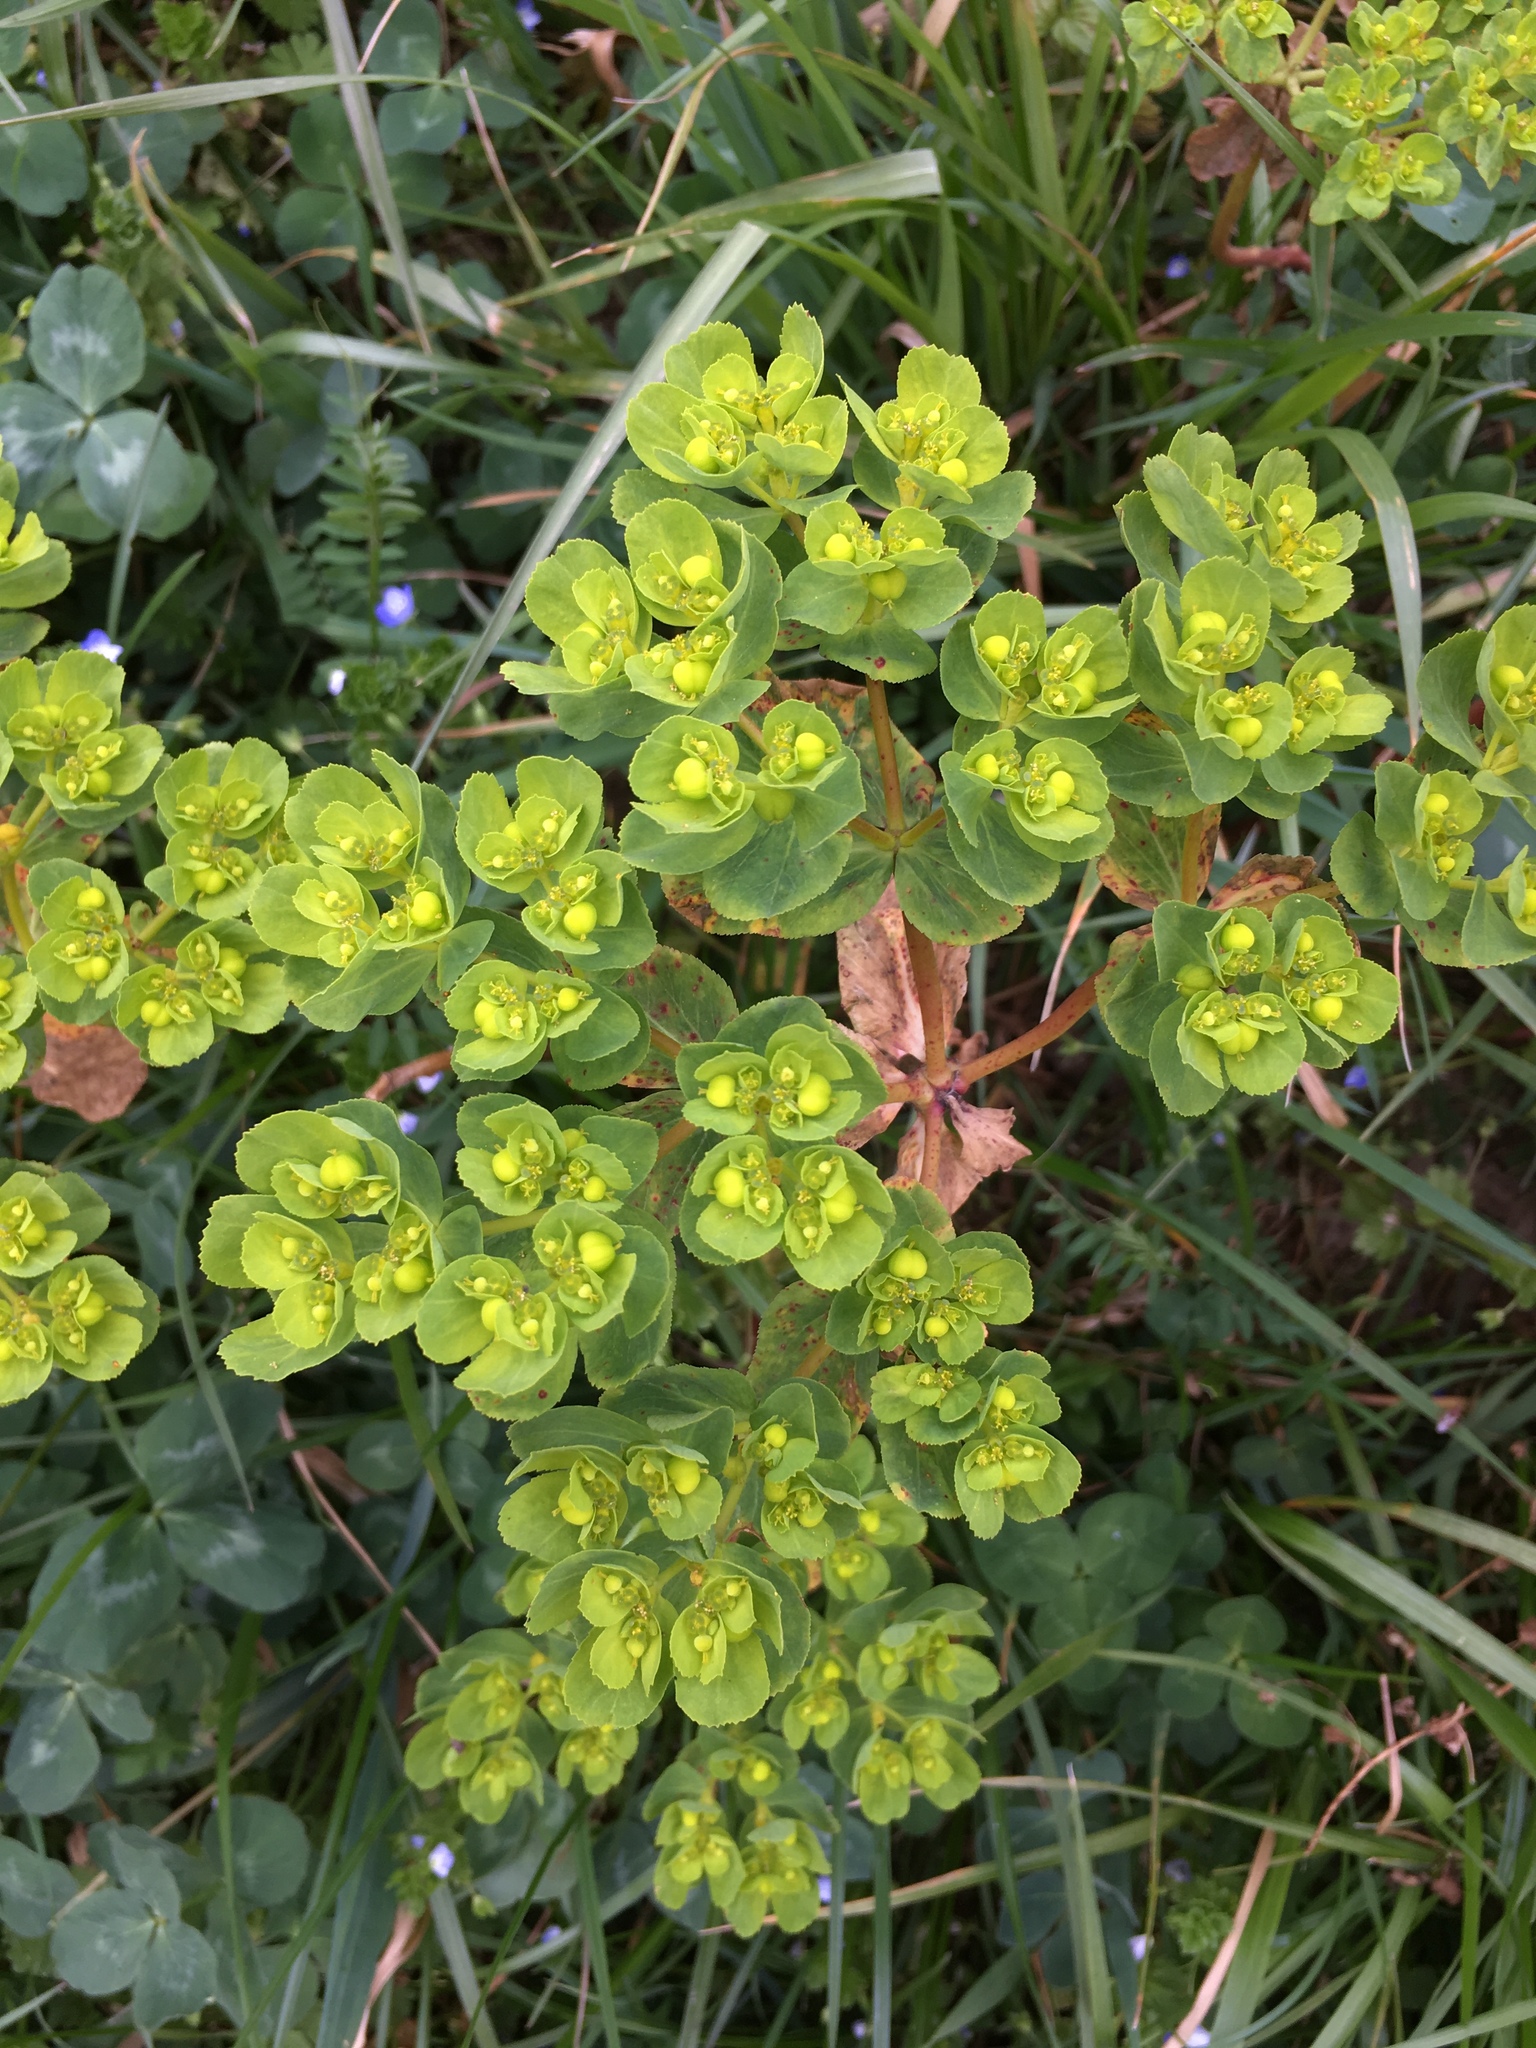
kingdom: Plantae
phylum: Tracheophyta
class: Magnoliopsida
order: Malpighiales
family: Euphorbiaceae
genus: Euphorbia
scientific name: Euphorbia helioscopia
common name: Sun spurge
